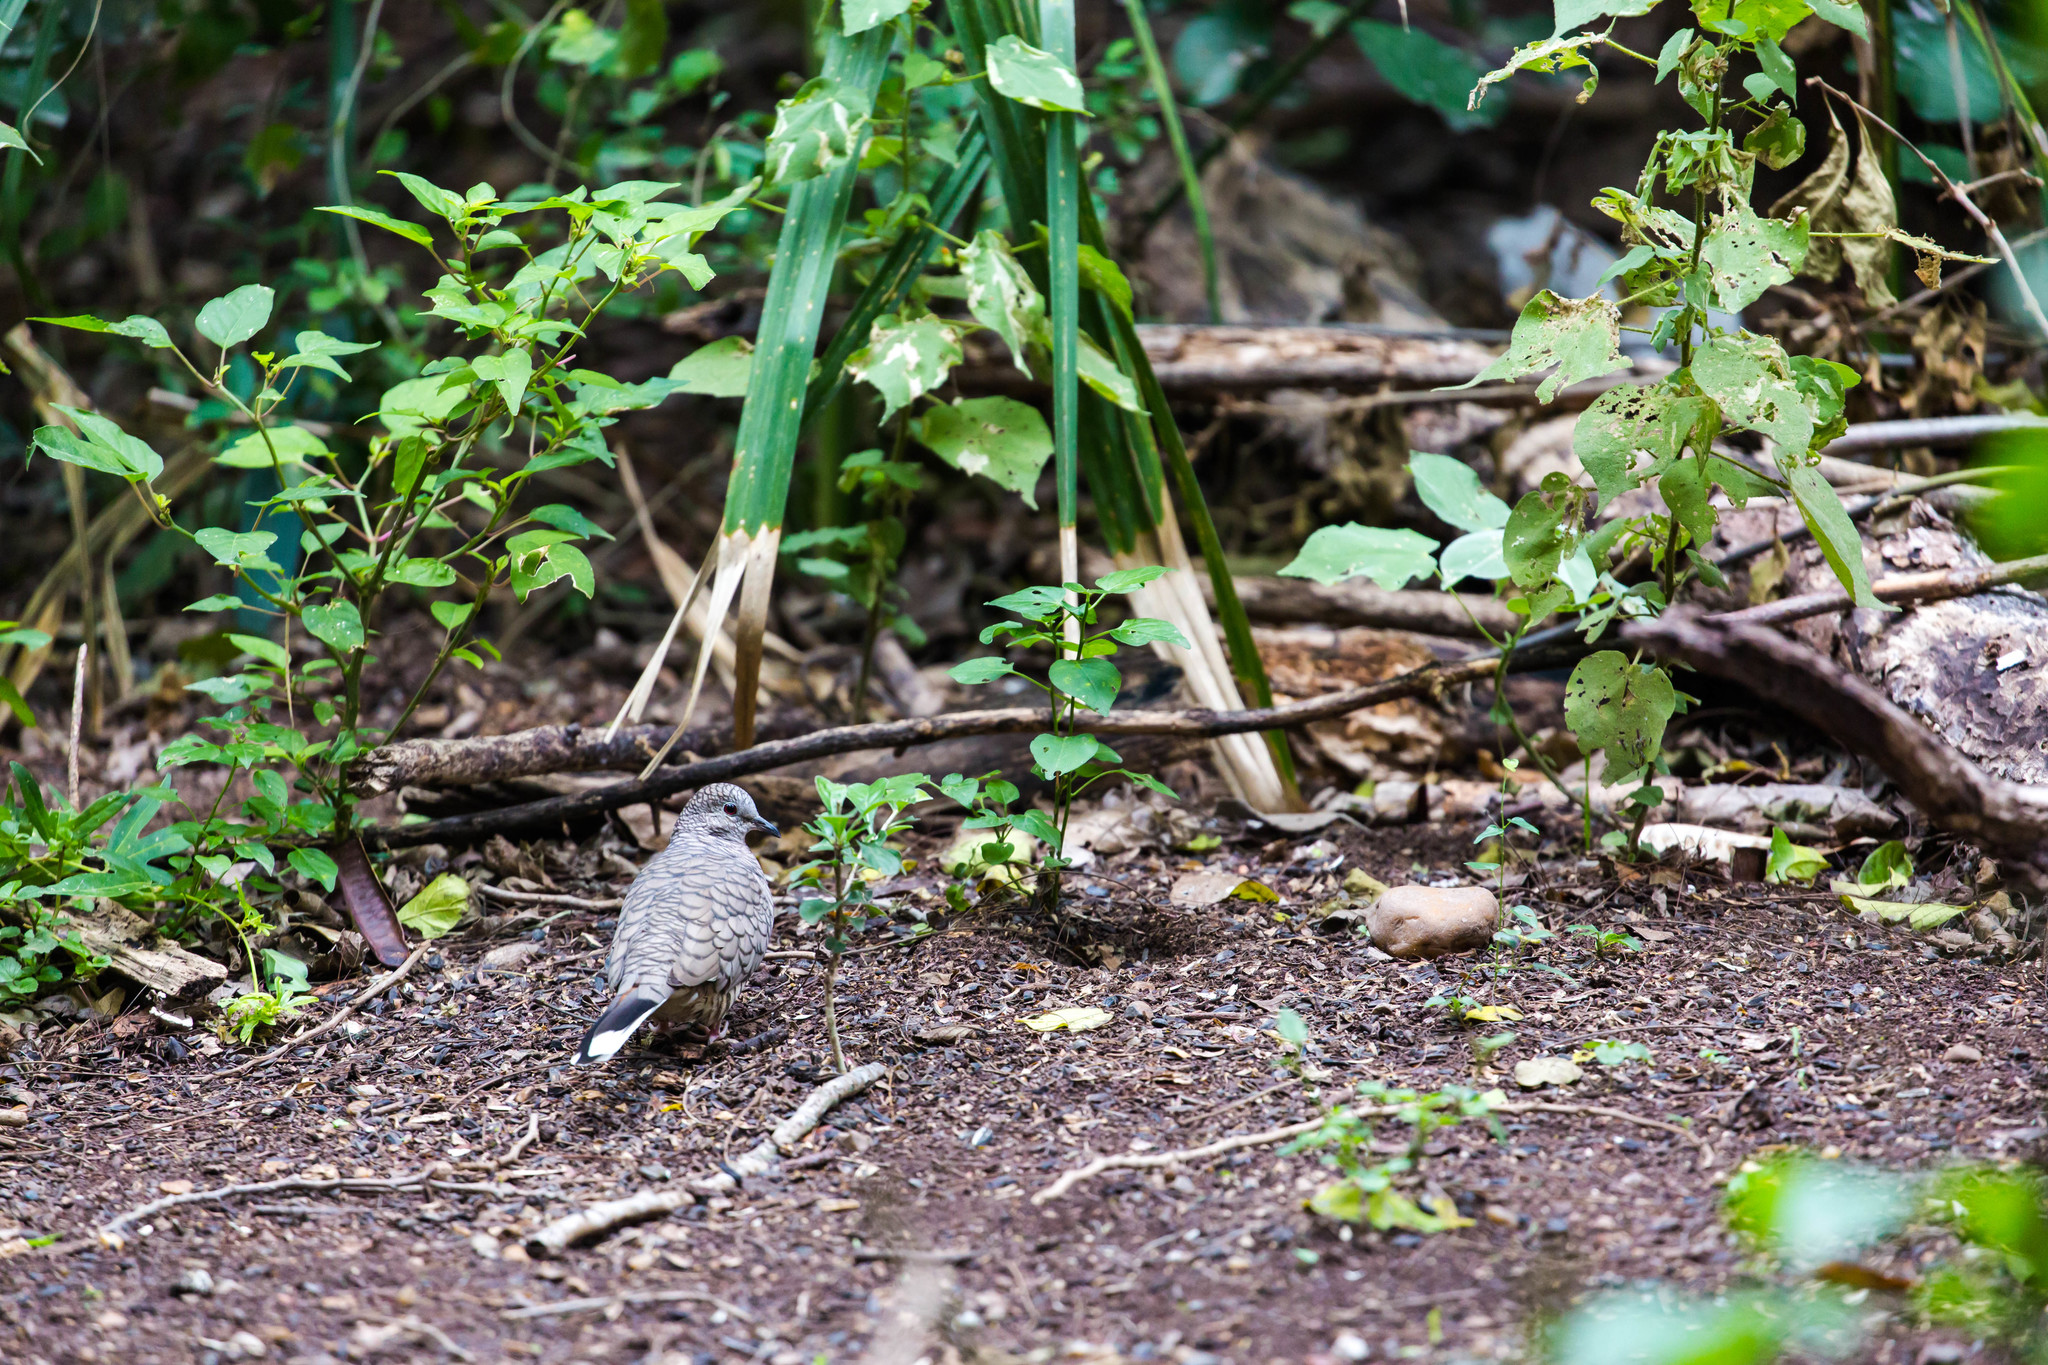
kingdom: Animalia
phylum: Chordata
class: Aves
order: Columbiformes
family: Columbidae
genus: Columbina
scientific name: Columbina inca
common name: Inca dove
